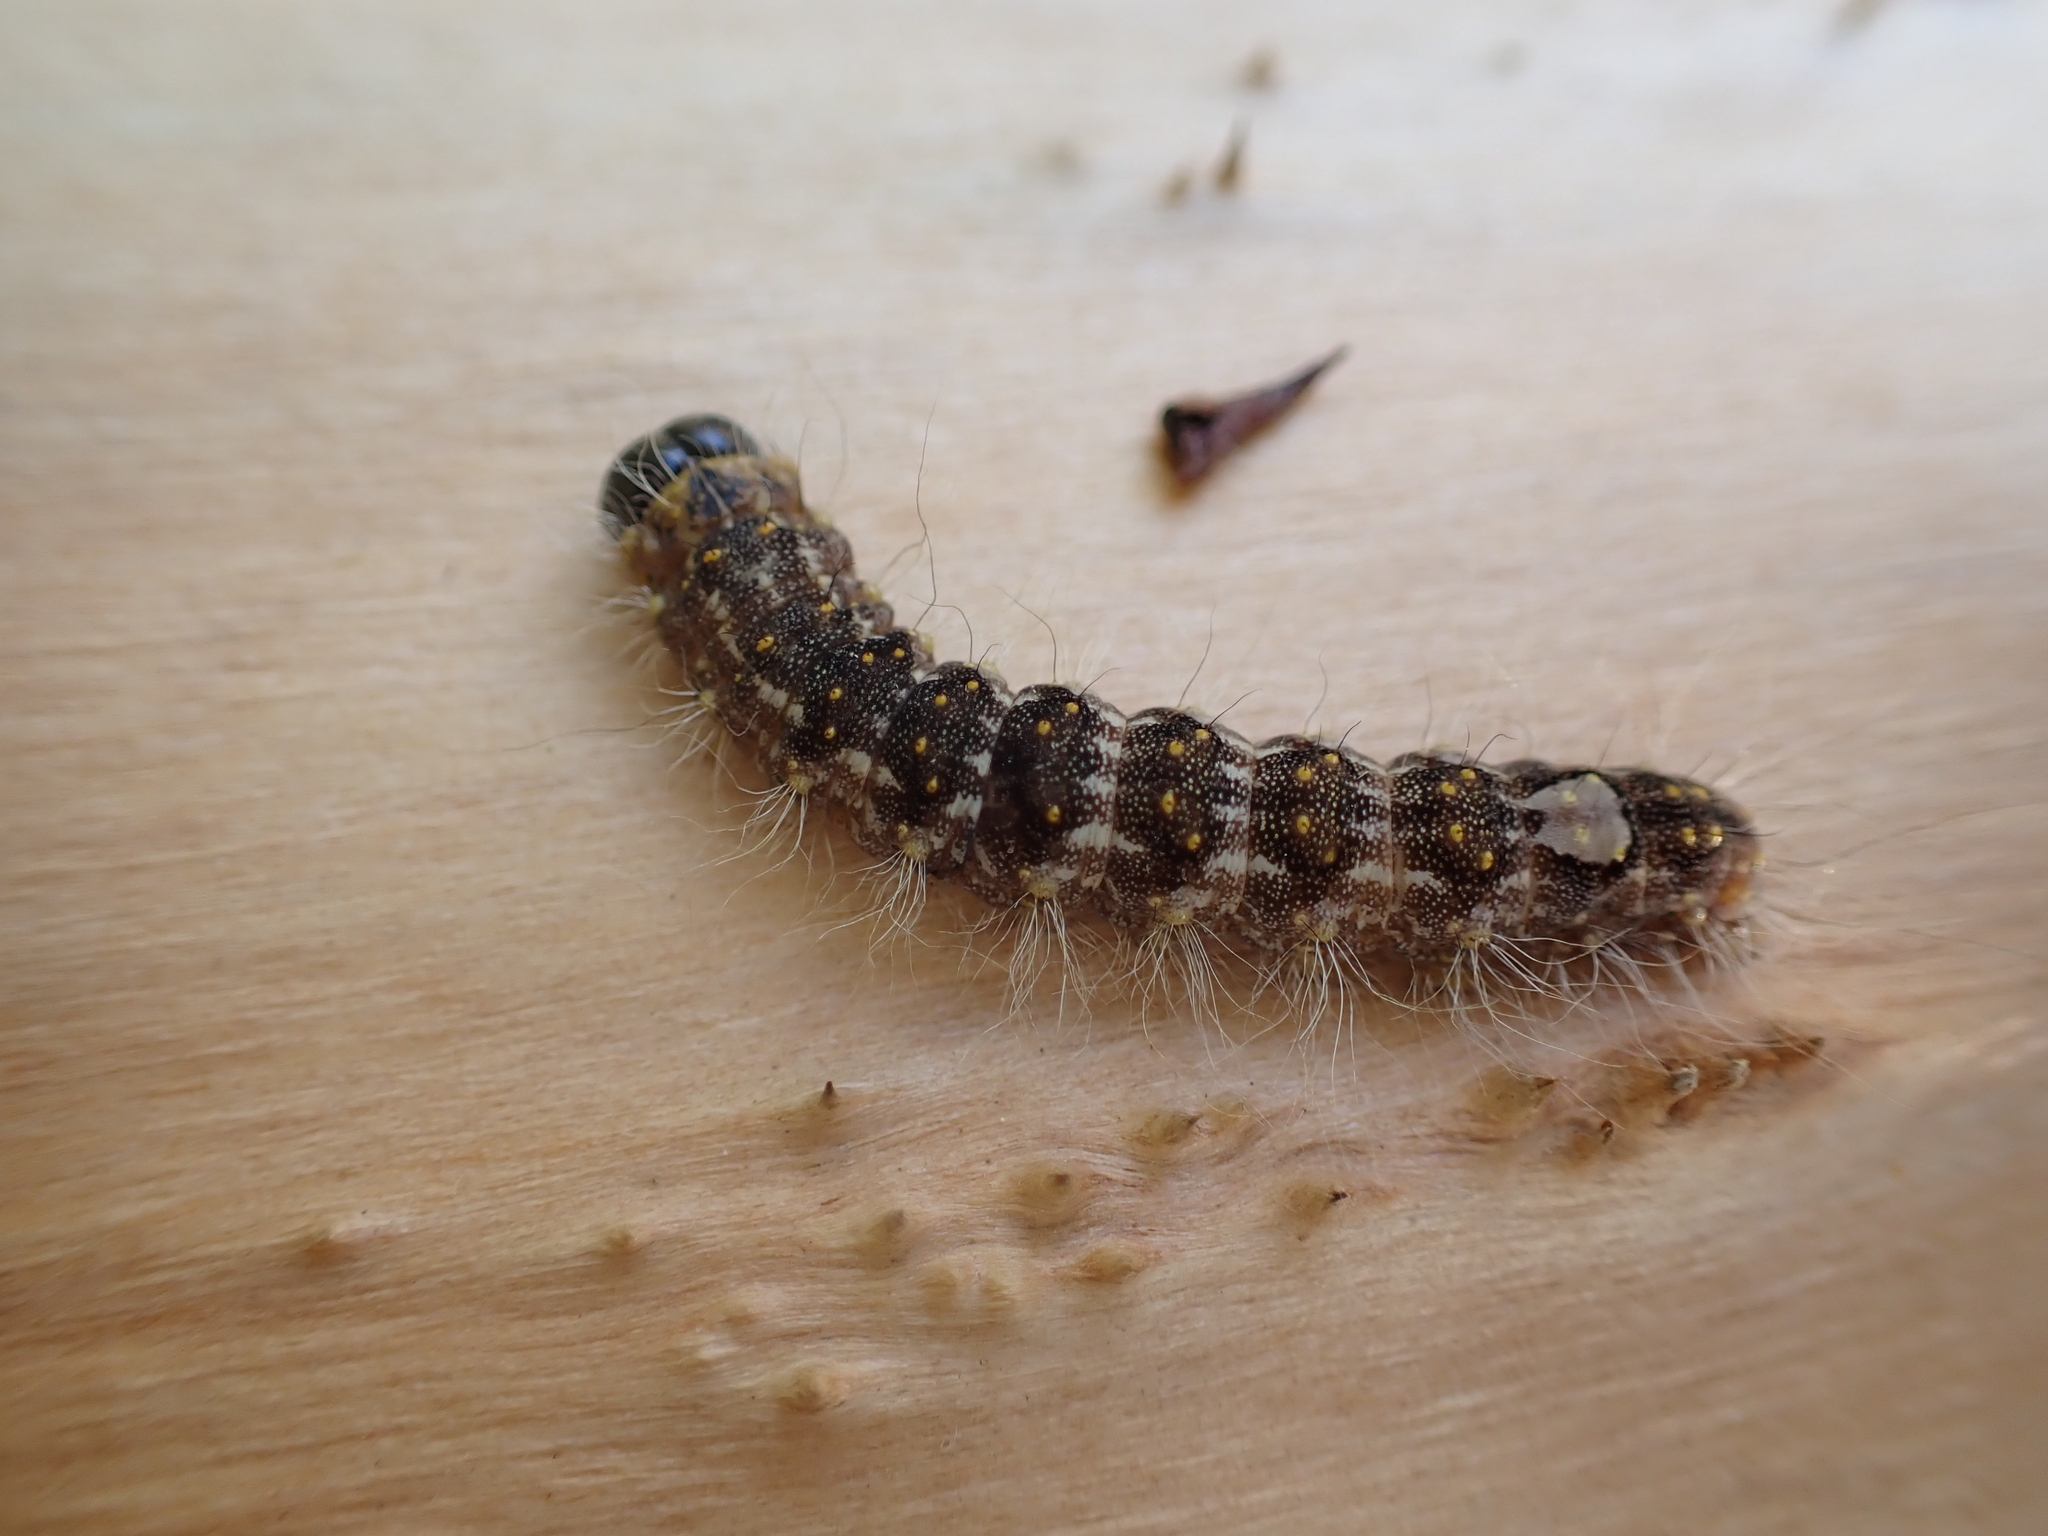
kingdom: Animalia
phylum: Arthropoda
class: Insecta
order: Lepidoptera
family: Noctuidae
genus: Acronicta
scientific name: Acronicta megacephala
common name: Poplar grey
